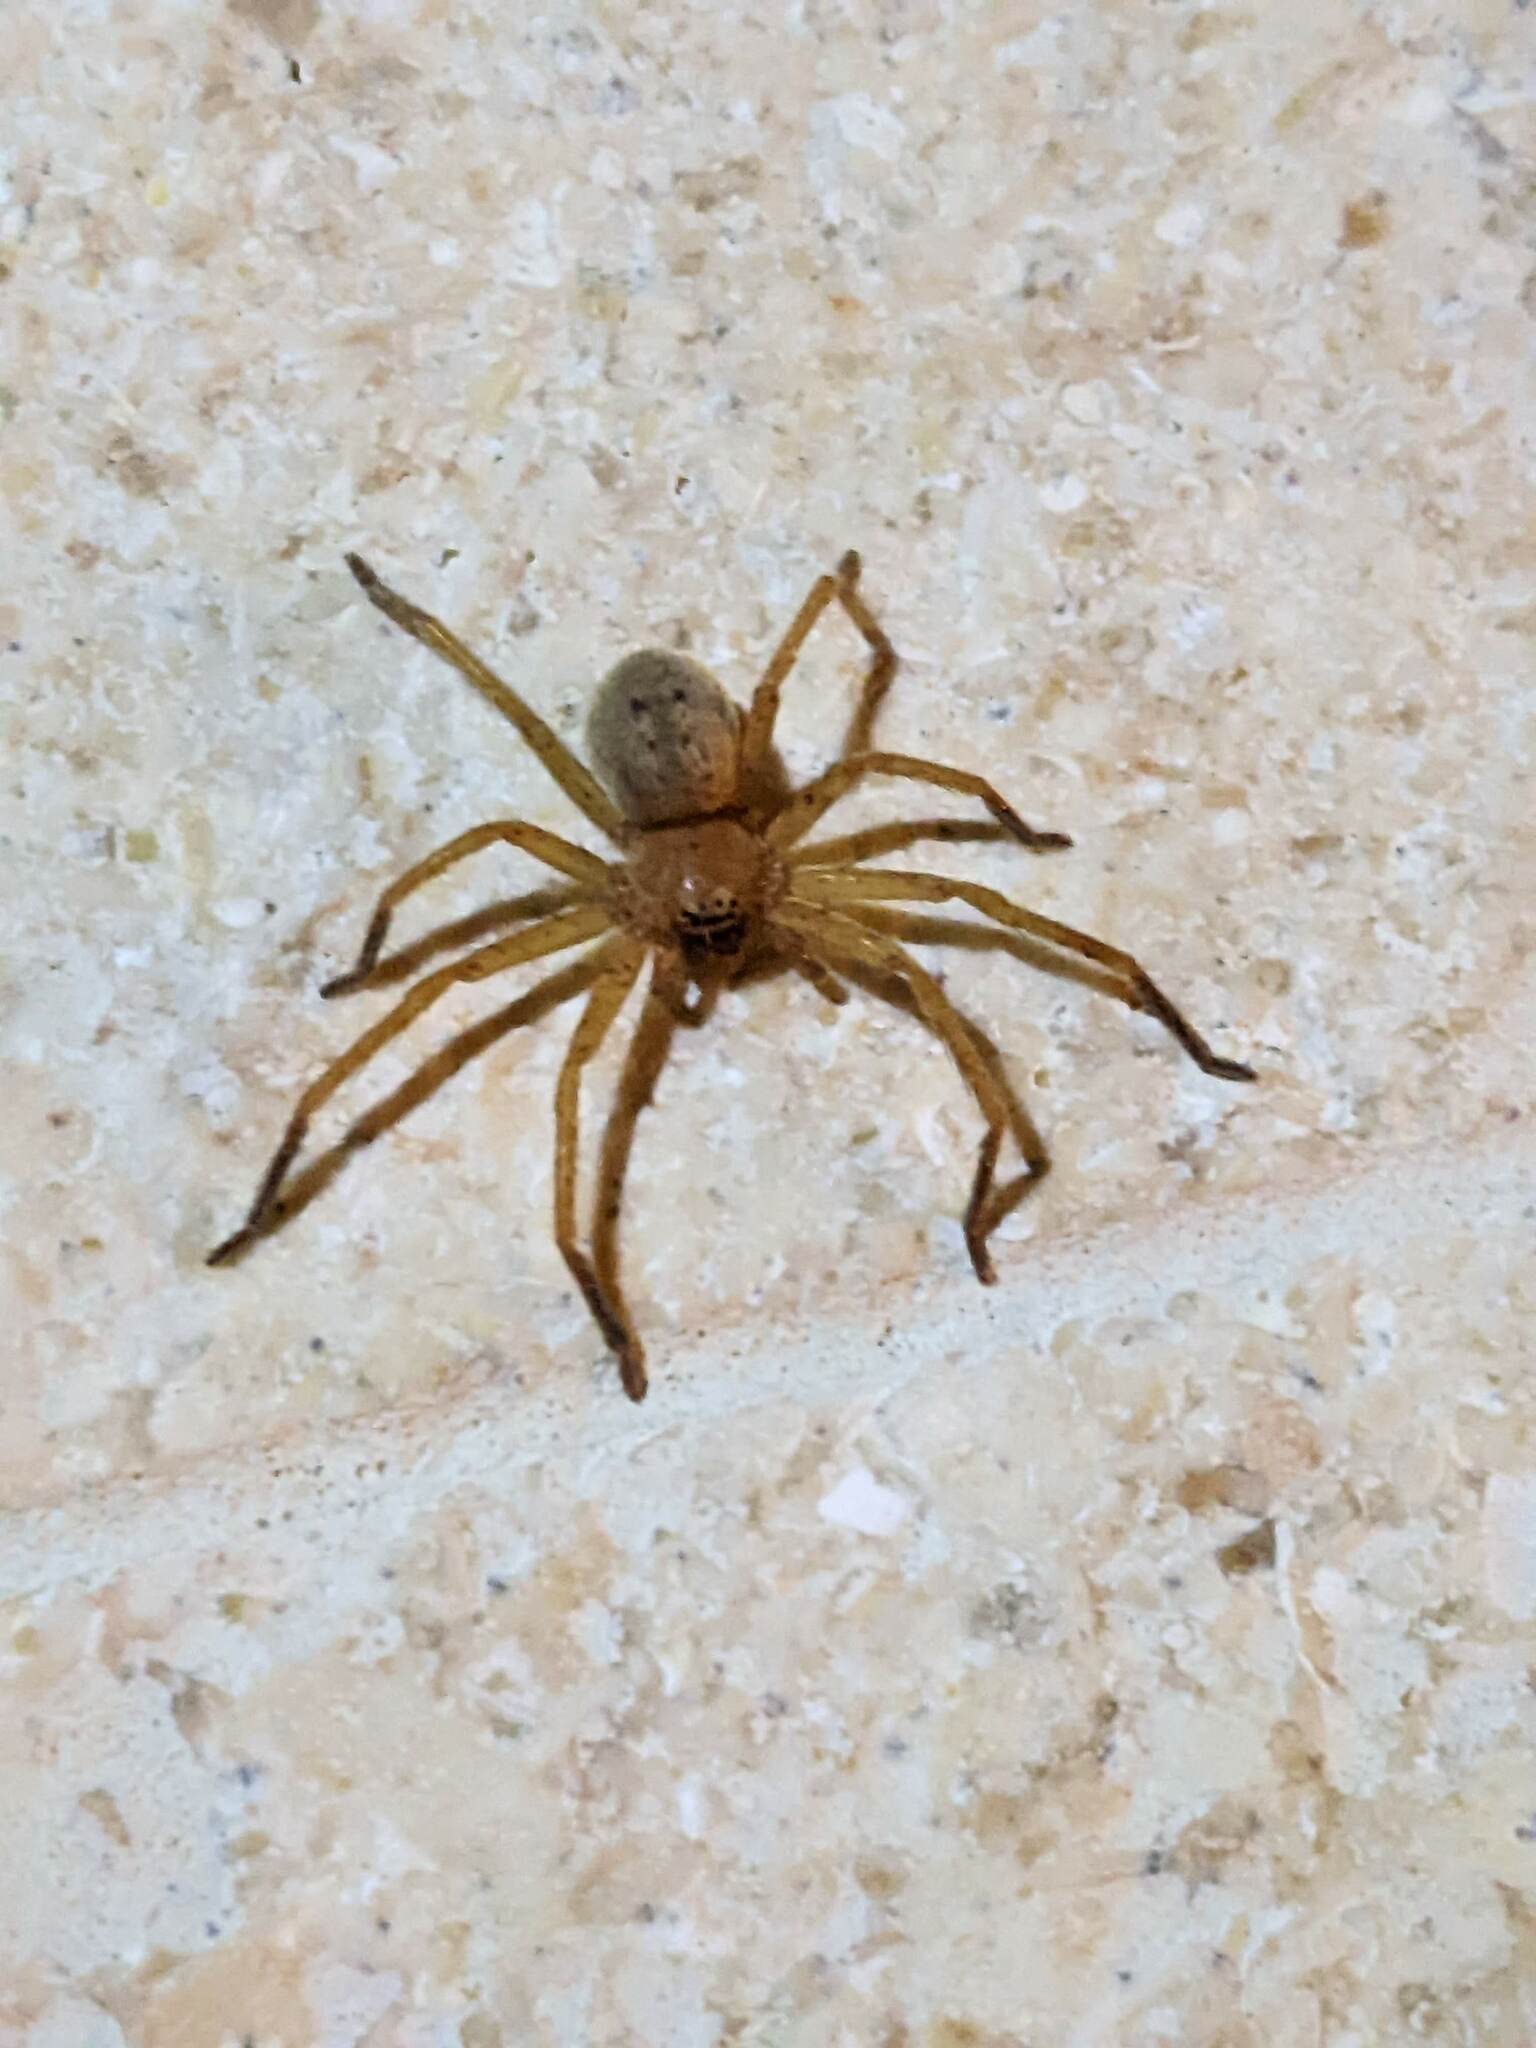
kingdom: Animalia
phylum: Arthropoda
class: Arachnida
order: Araneae
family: Sparassidae
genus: Olios
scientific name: Olios argelasius
